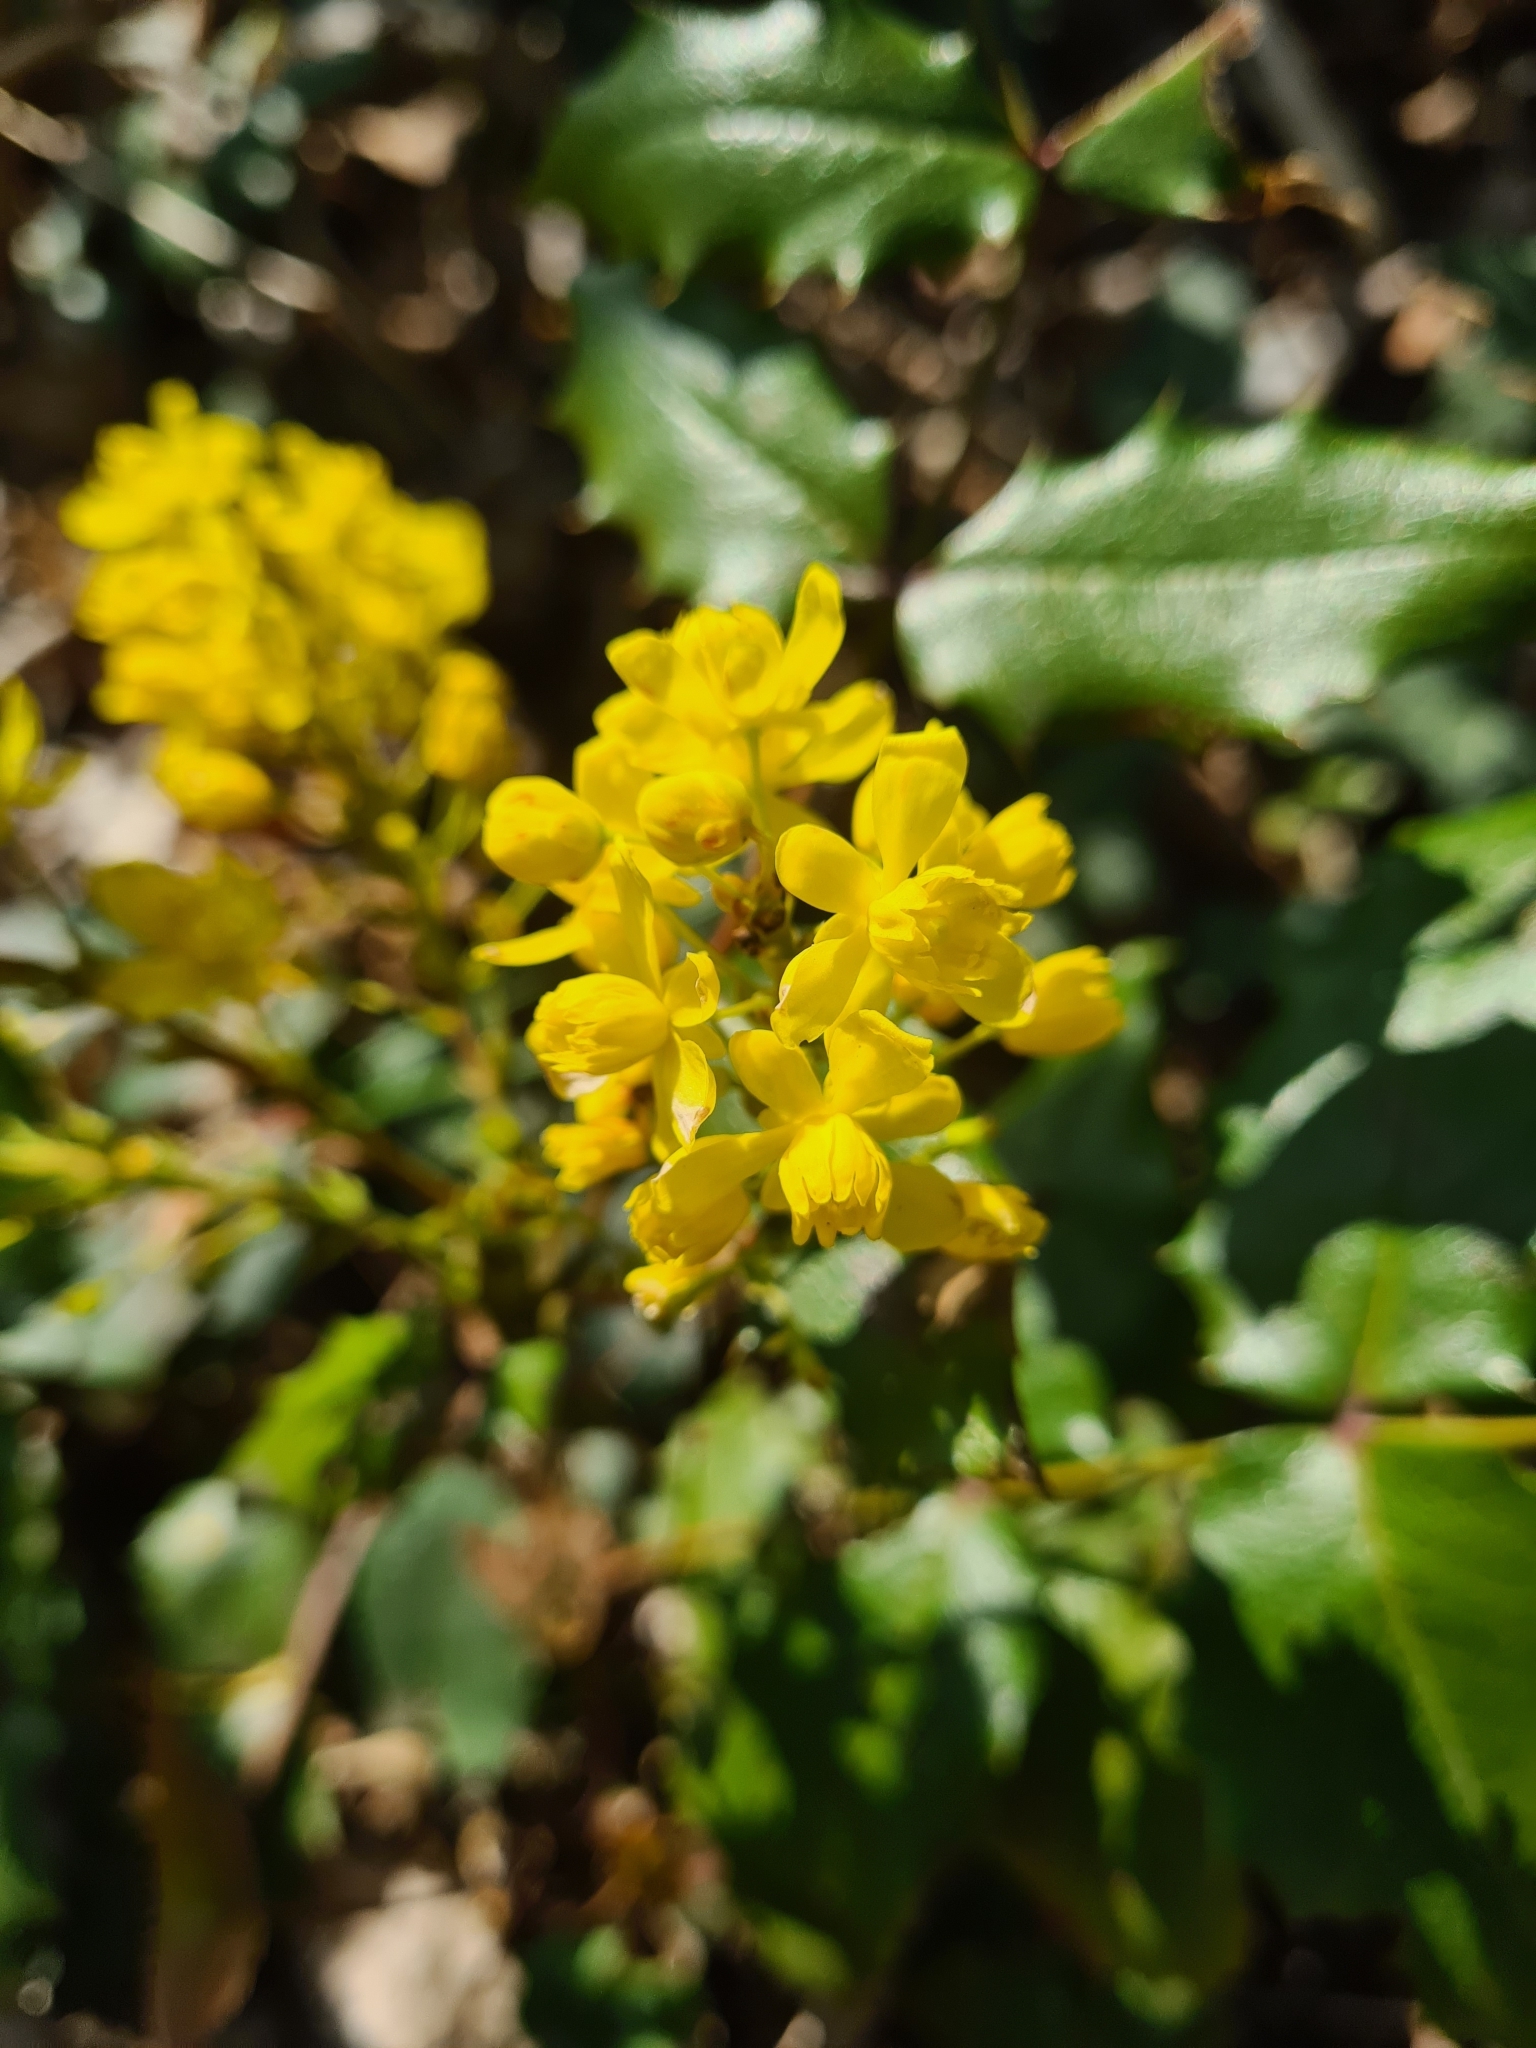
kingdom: Plantae
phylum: Tracheophyta
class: Magnoliopsida
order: Ranunculales
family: Berberidaceae
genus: Mahonia
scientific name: Mahonia aquifolium
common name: Oregon-grape
